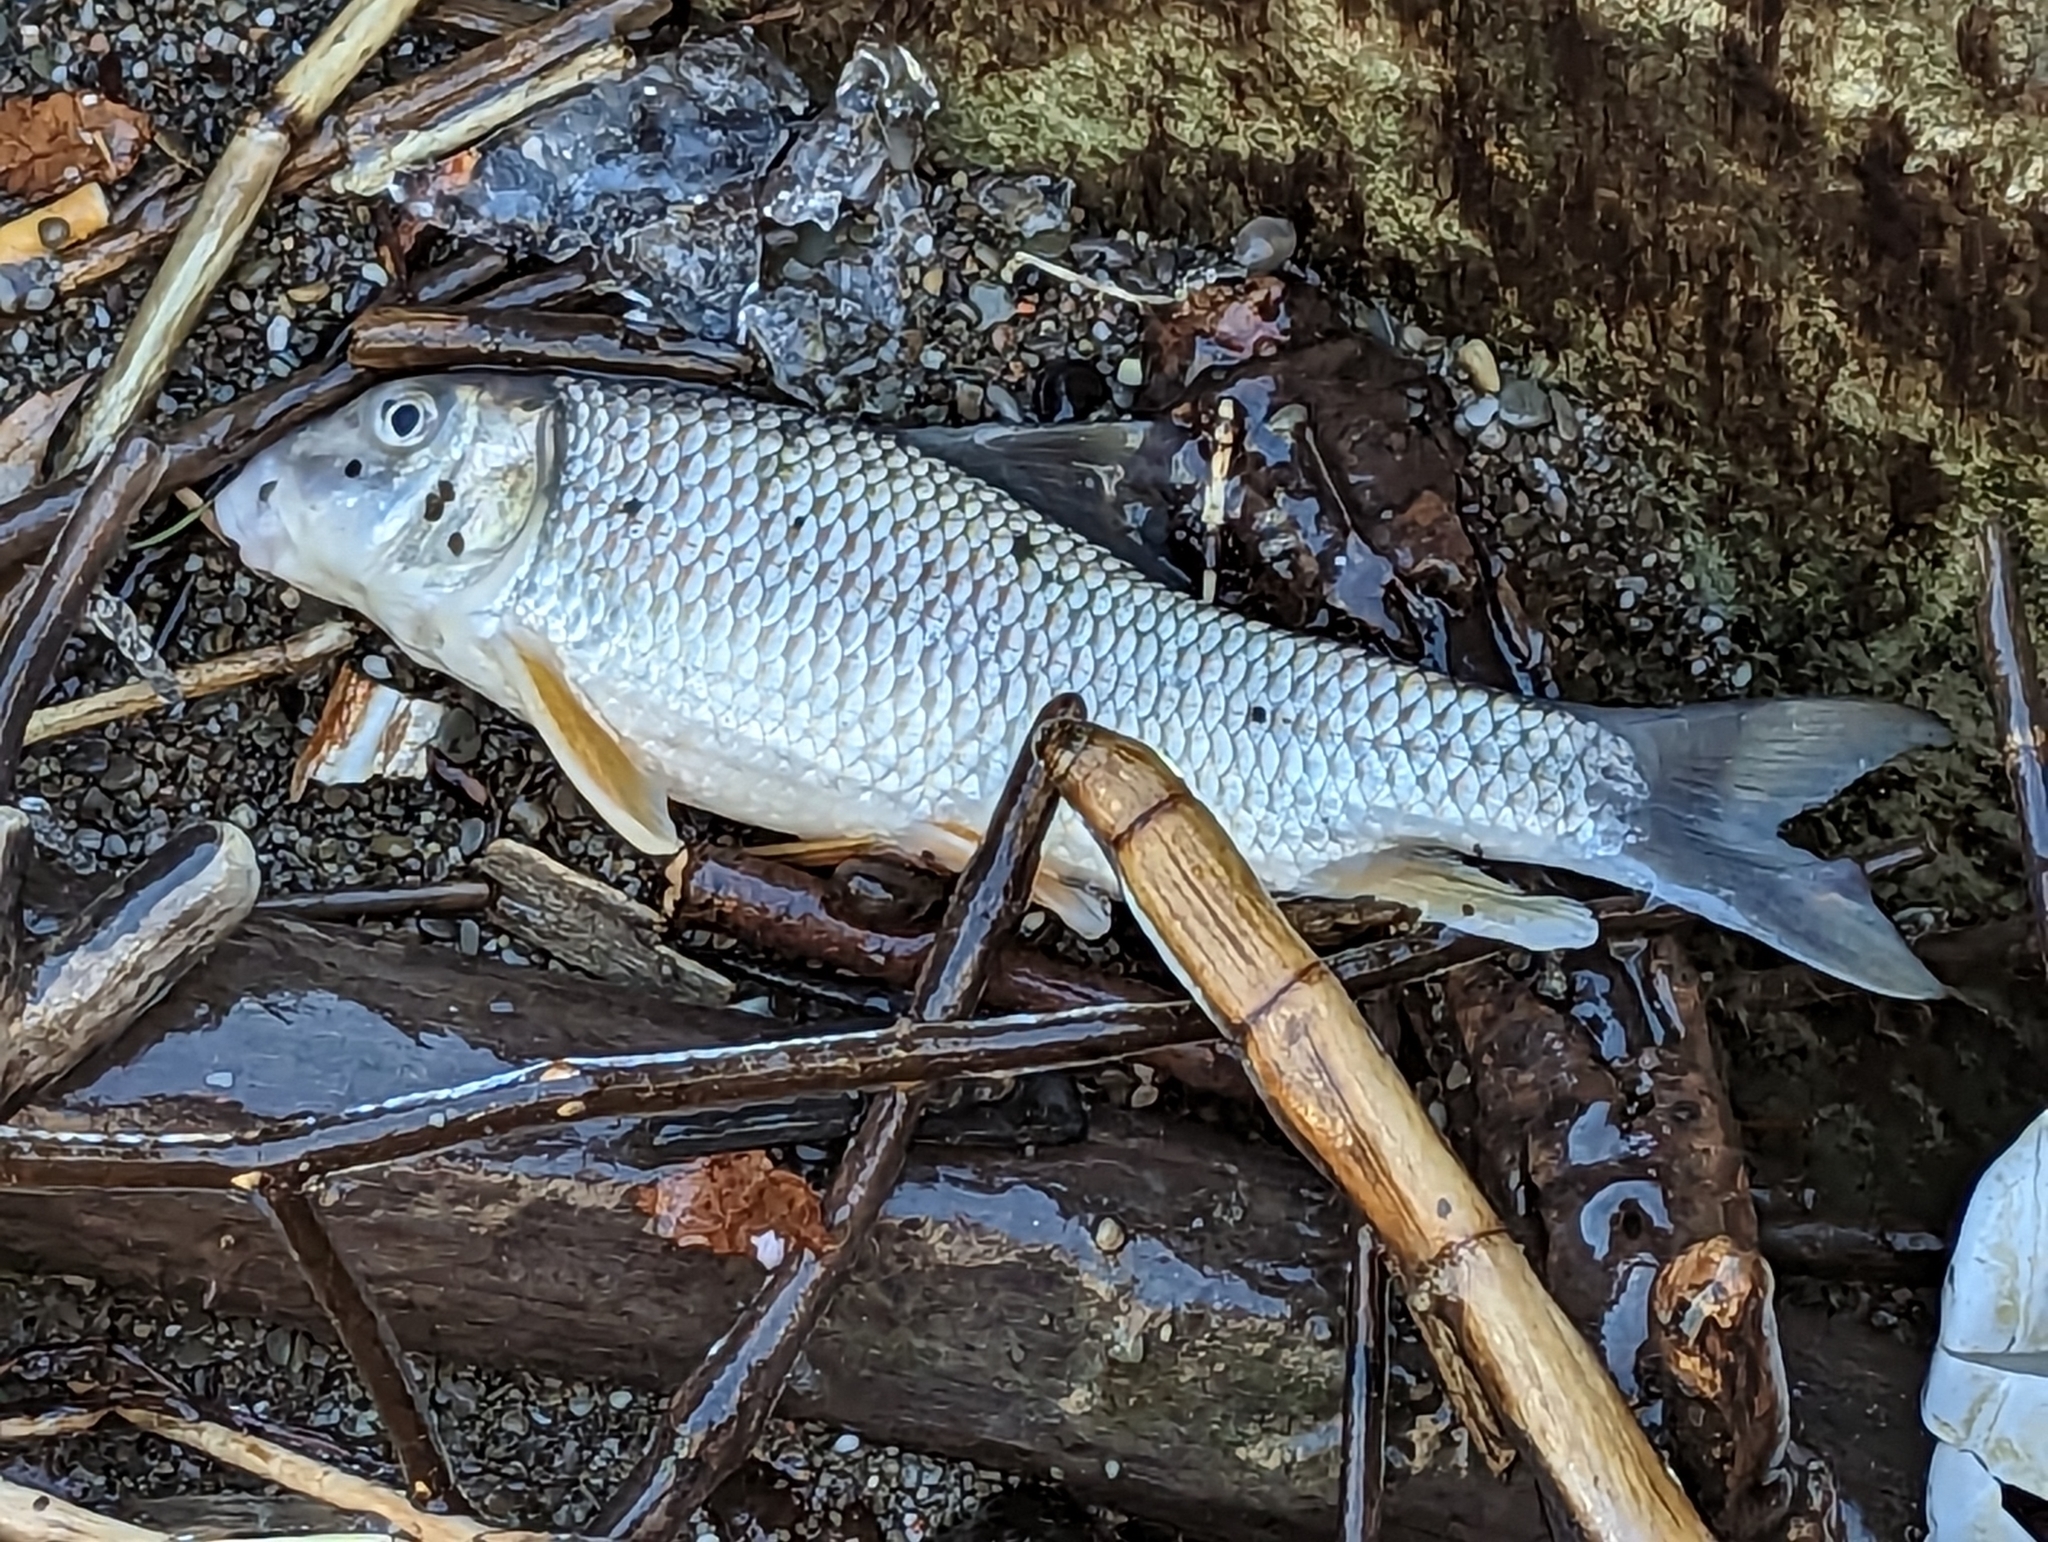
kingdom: Animalia
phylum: Chordata
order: Cypriniformes
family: Catostomidae
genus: Moxostoma
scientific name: Moxostoma anisurum
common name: Silver redhorse
